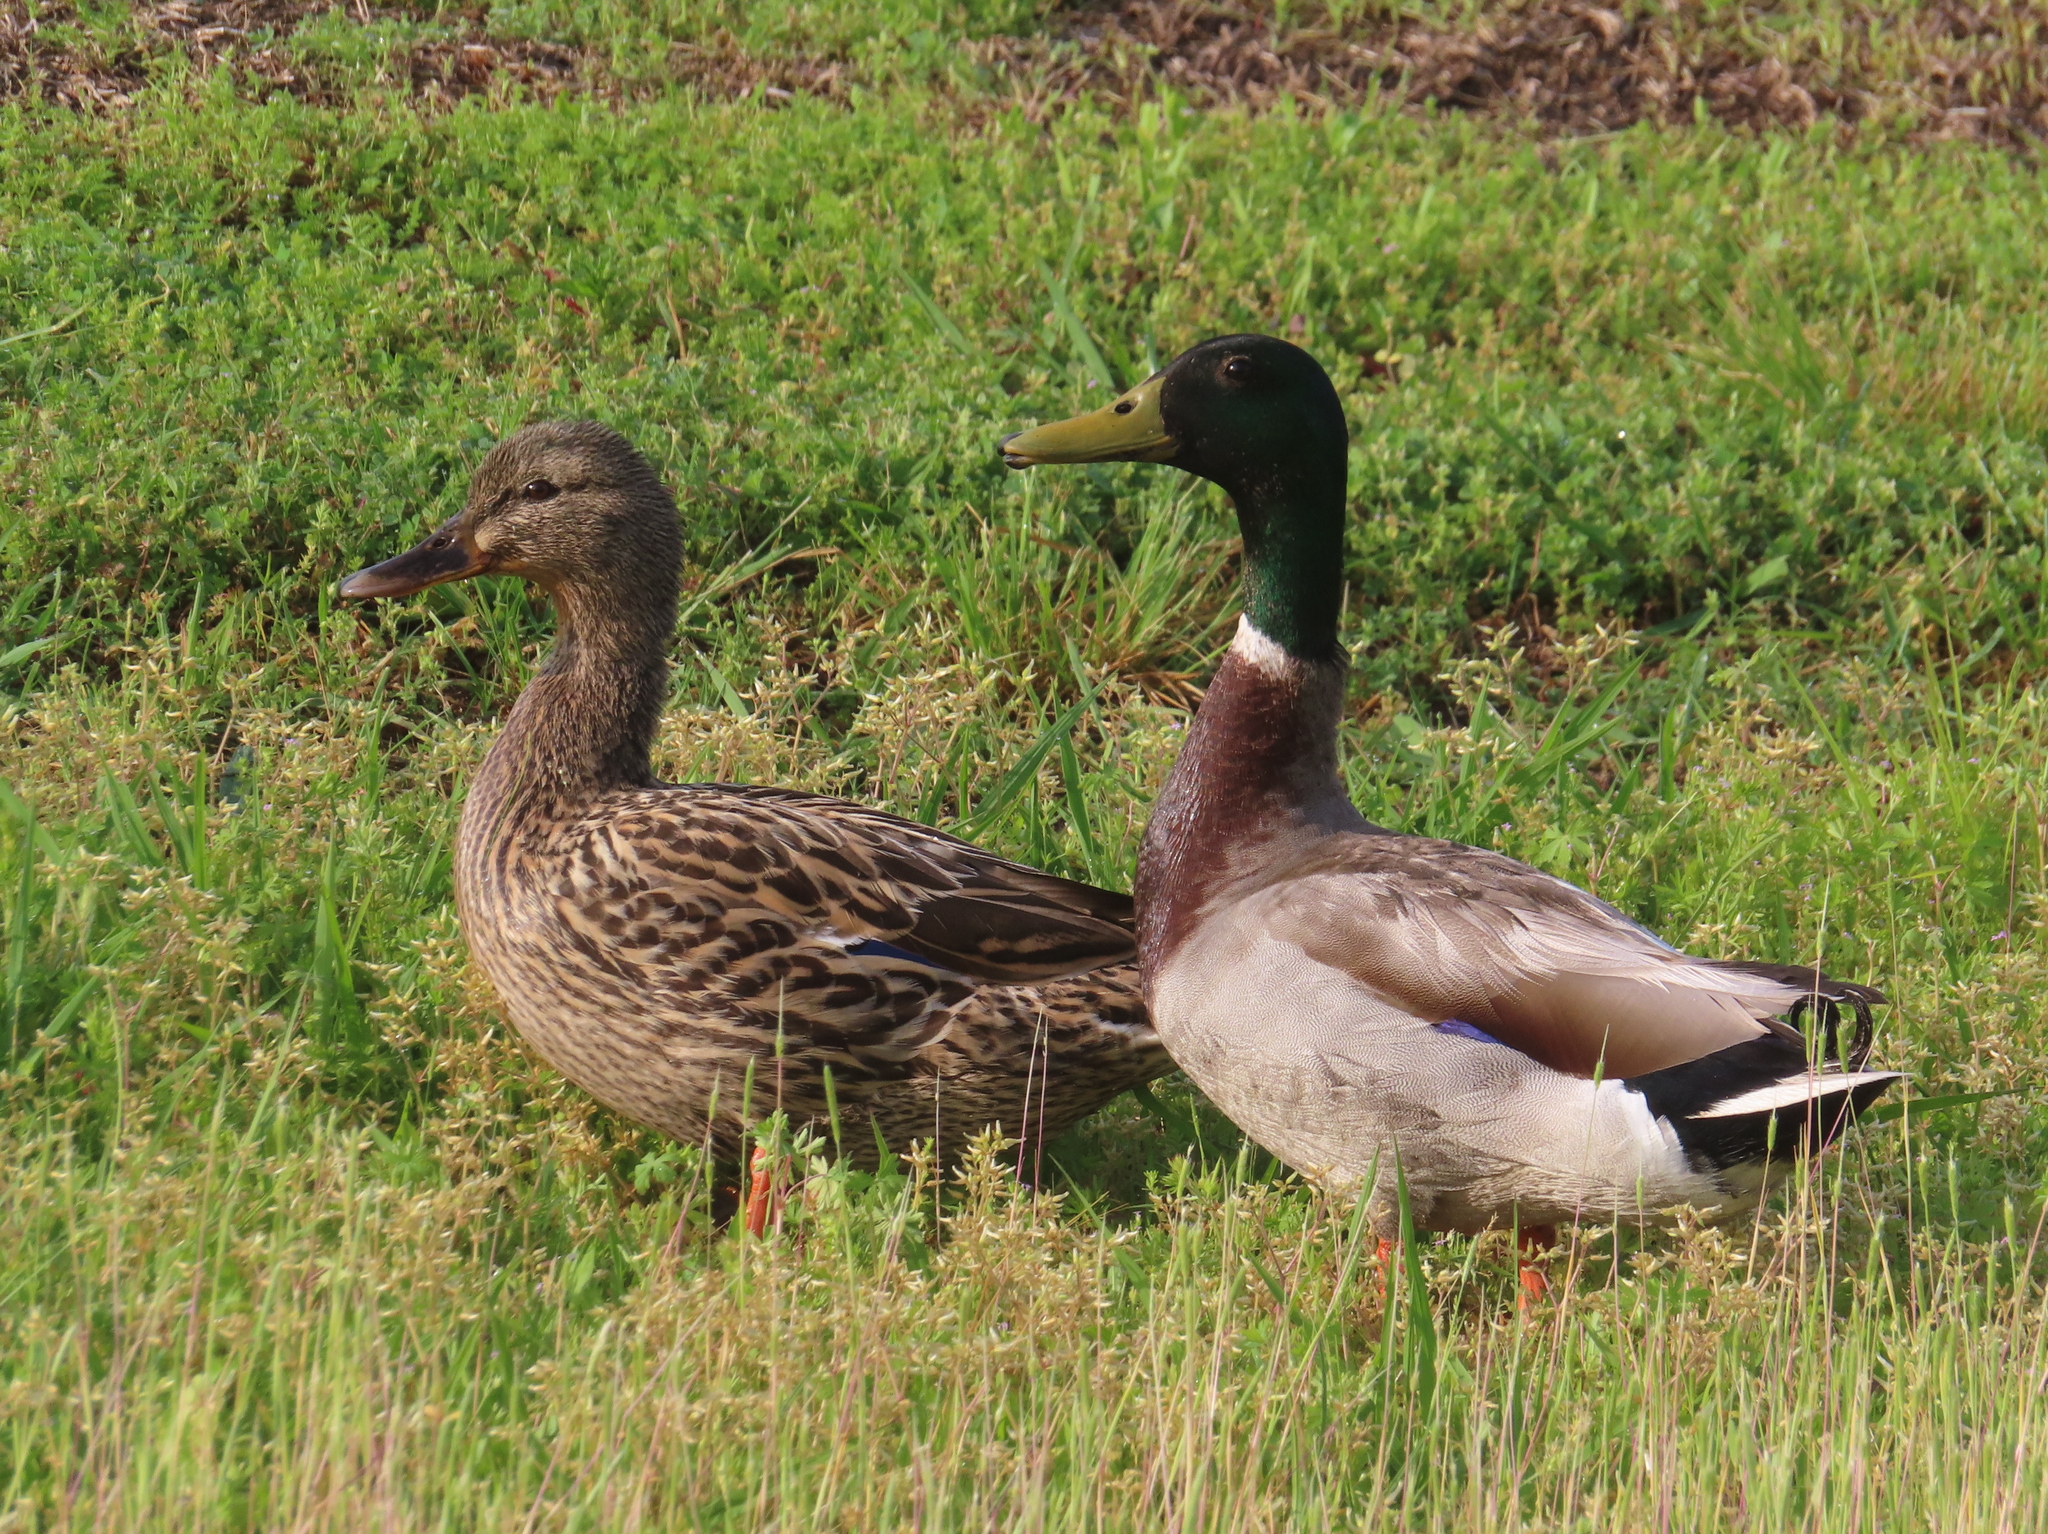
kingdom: Animalia
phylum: Chordata
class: Aves
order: Anseriformes
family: Anatidae
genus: Anas
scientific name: Anas platyrhynchos
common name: Mallard
